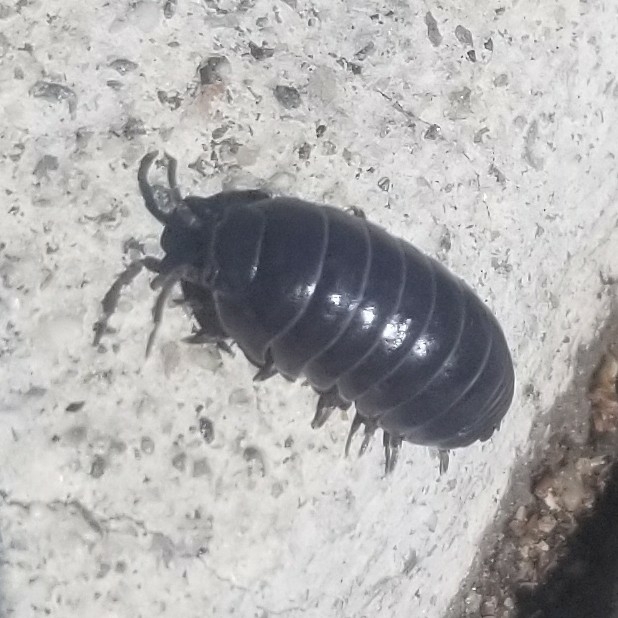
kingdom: Animalia
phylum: Arthropoda
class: Malacostraca
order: Isopoda
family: Armadillidiidae
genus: Armadillidium
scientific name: Armadillidium vulgare
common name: Common pill woodlouse
